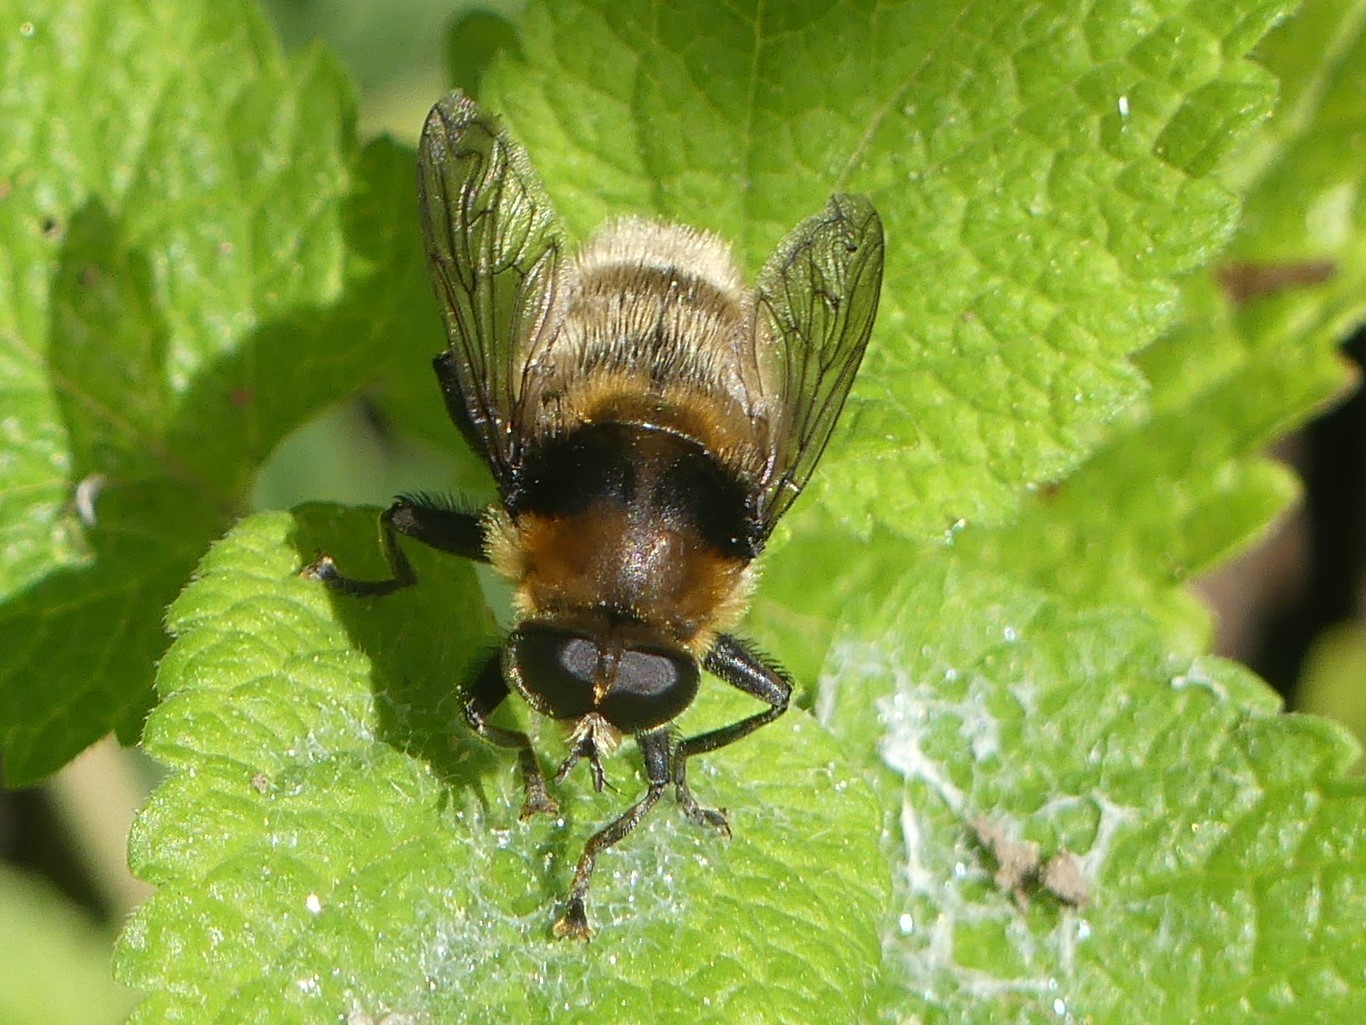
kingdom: Animalia
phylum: Arthropoda
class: Insecta
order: Diptera
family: Syrphidae
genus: Merodon
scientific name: Merodon equestris
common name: Greater bulb-fly
